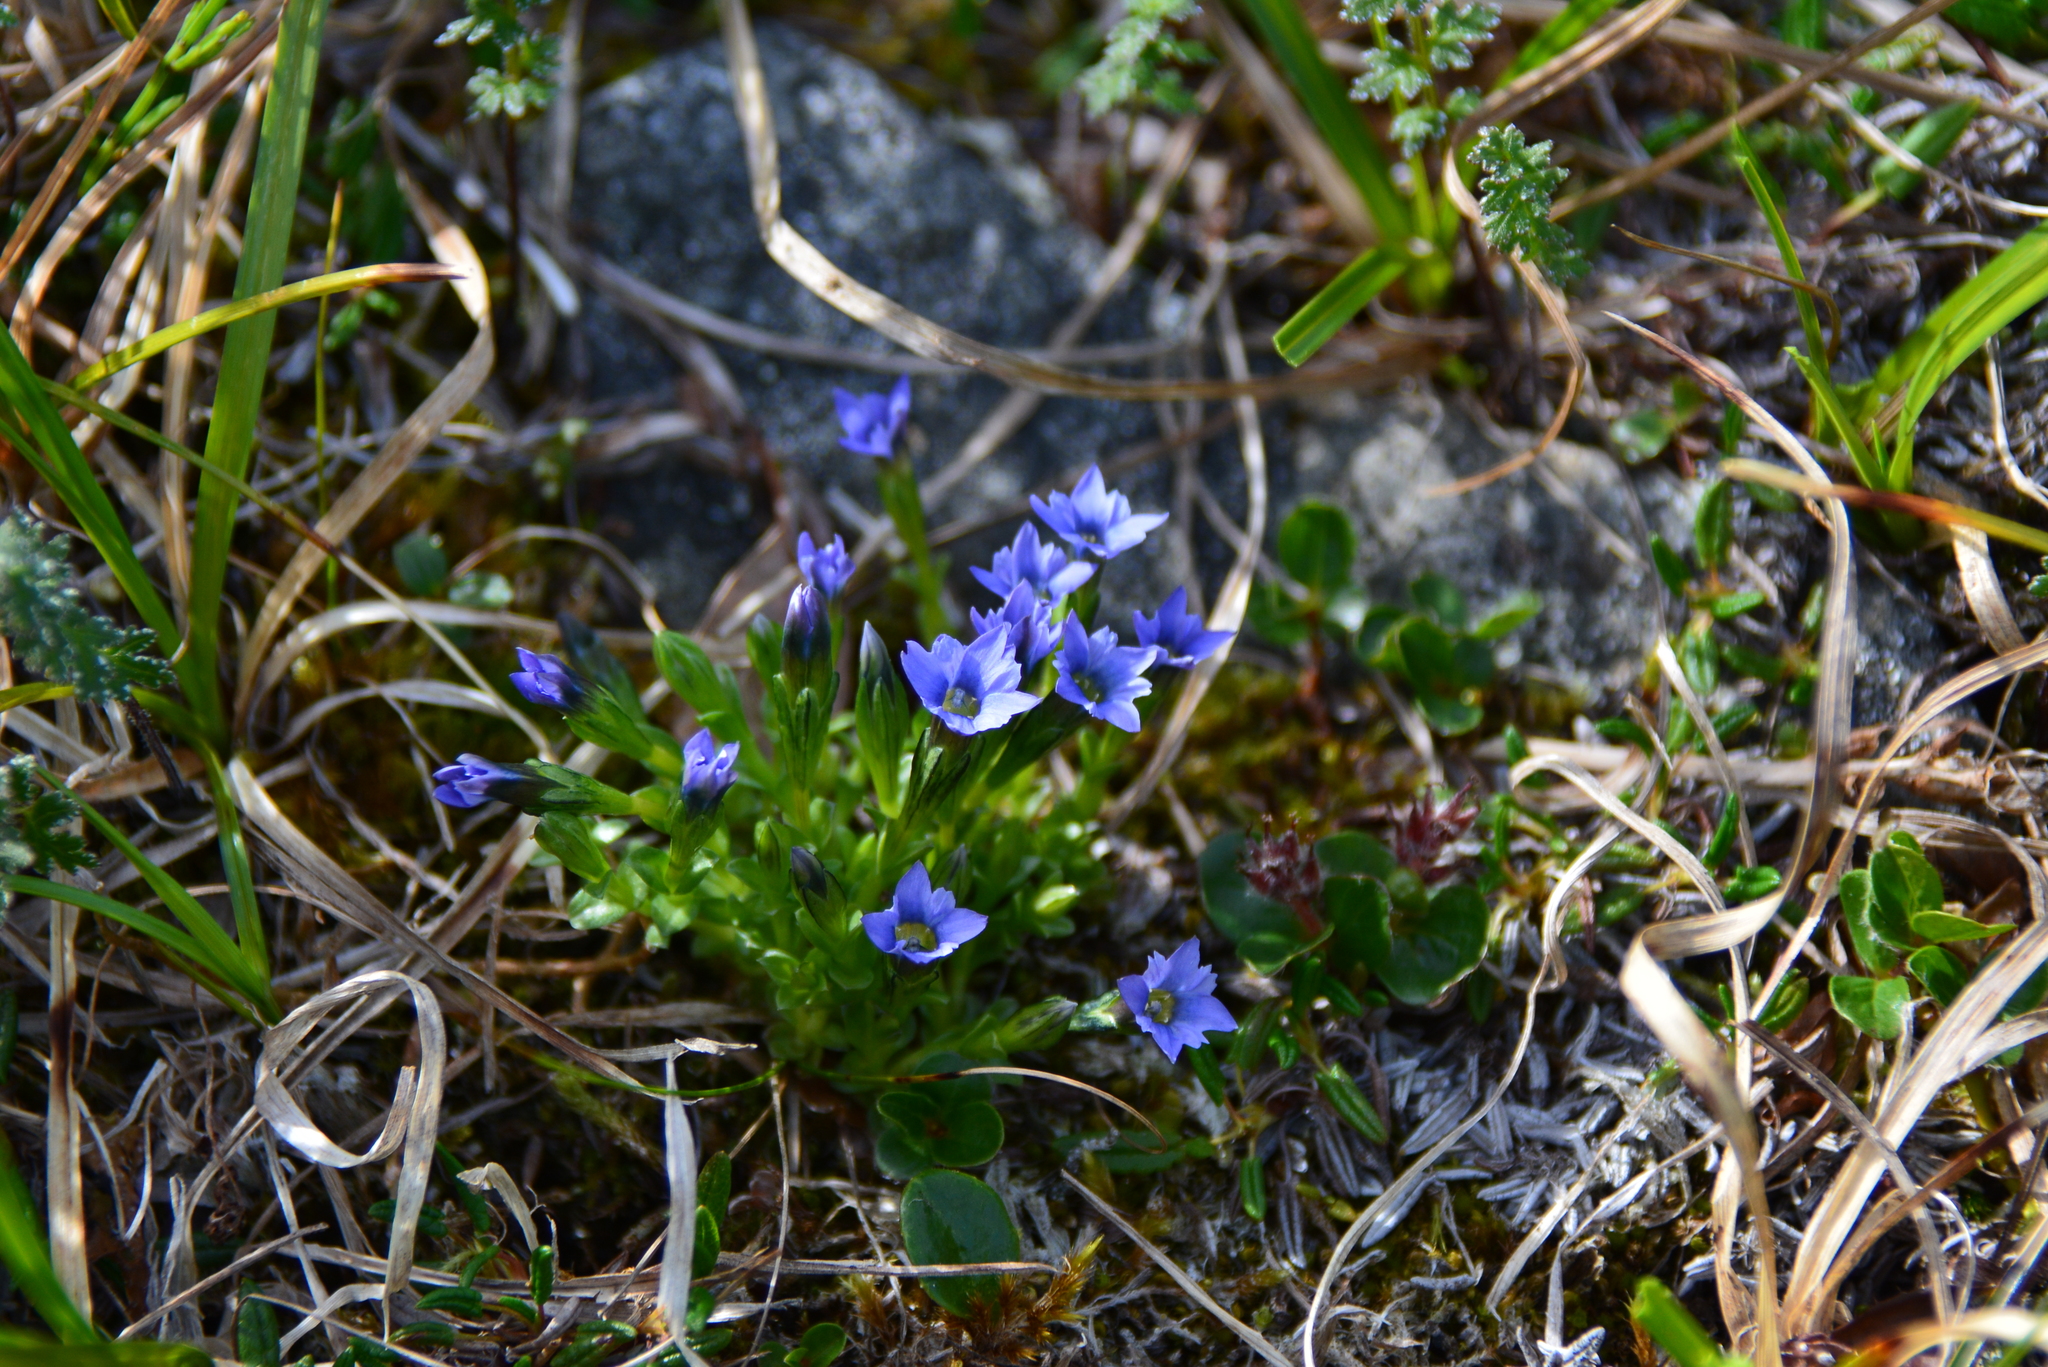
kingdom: Plantae
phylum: Tracheophyta
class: Magnoliopsida
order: Gentianales
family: Gentianaceae
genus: Gentiana
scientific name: Gentiana prostrata
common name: Moss gentian
